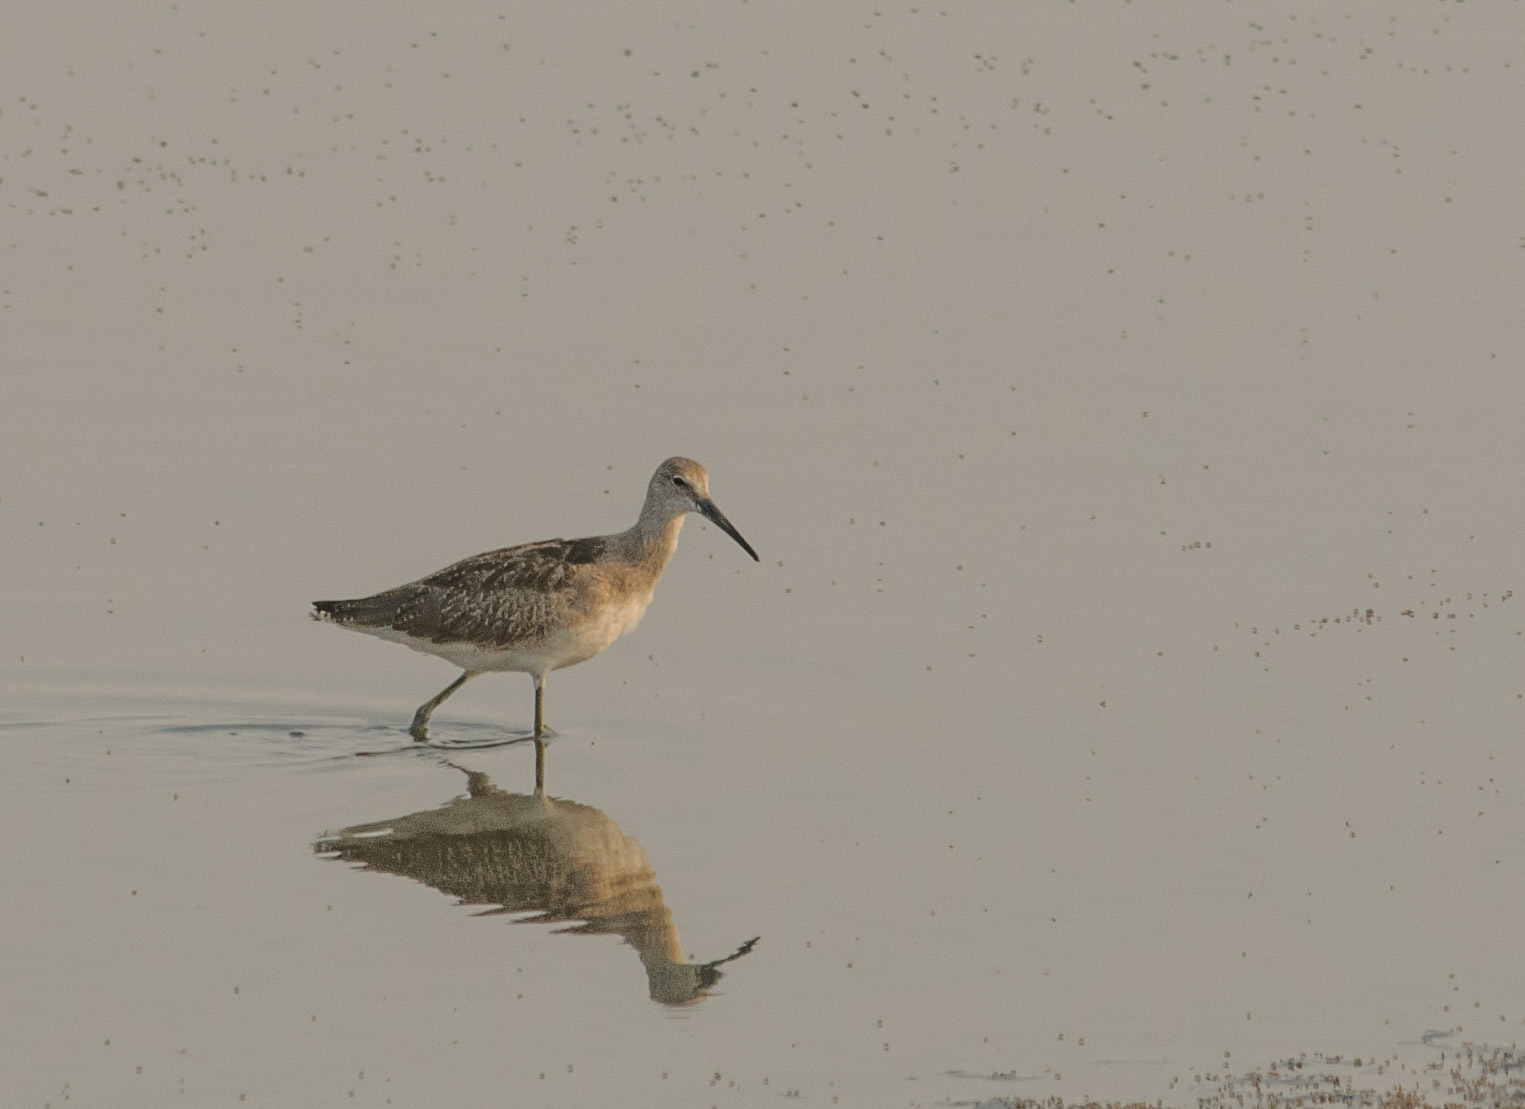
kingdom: Animalia
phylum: Chordata
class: Aves
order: Charadriiformes
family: Scolopacidae
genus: Tringa
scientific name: Tringa semipalmata
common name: Willet
